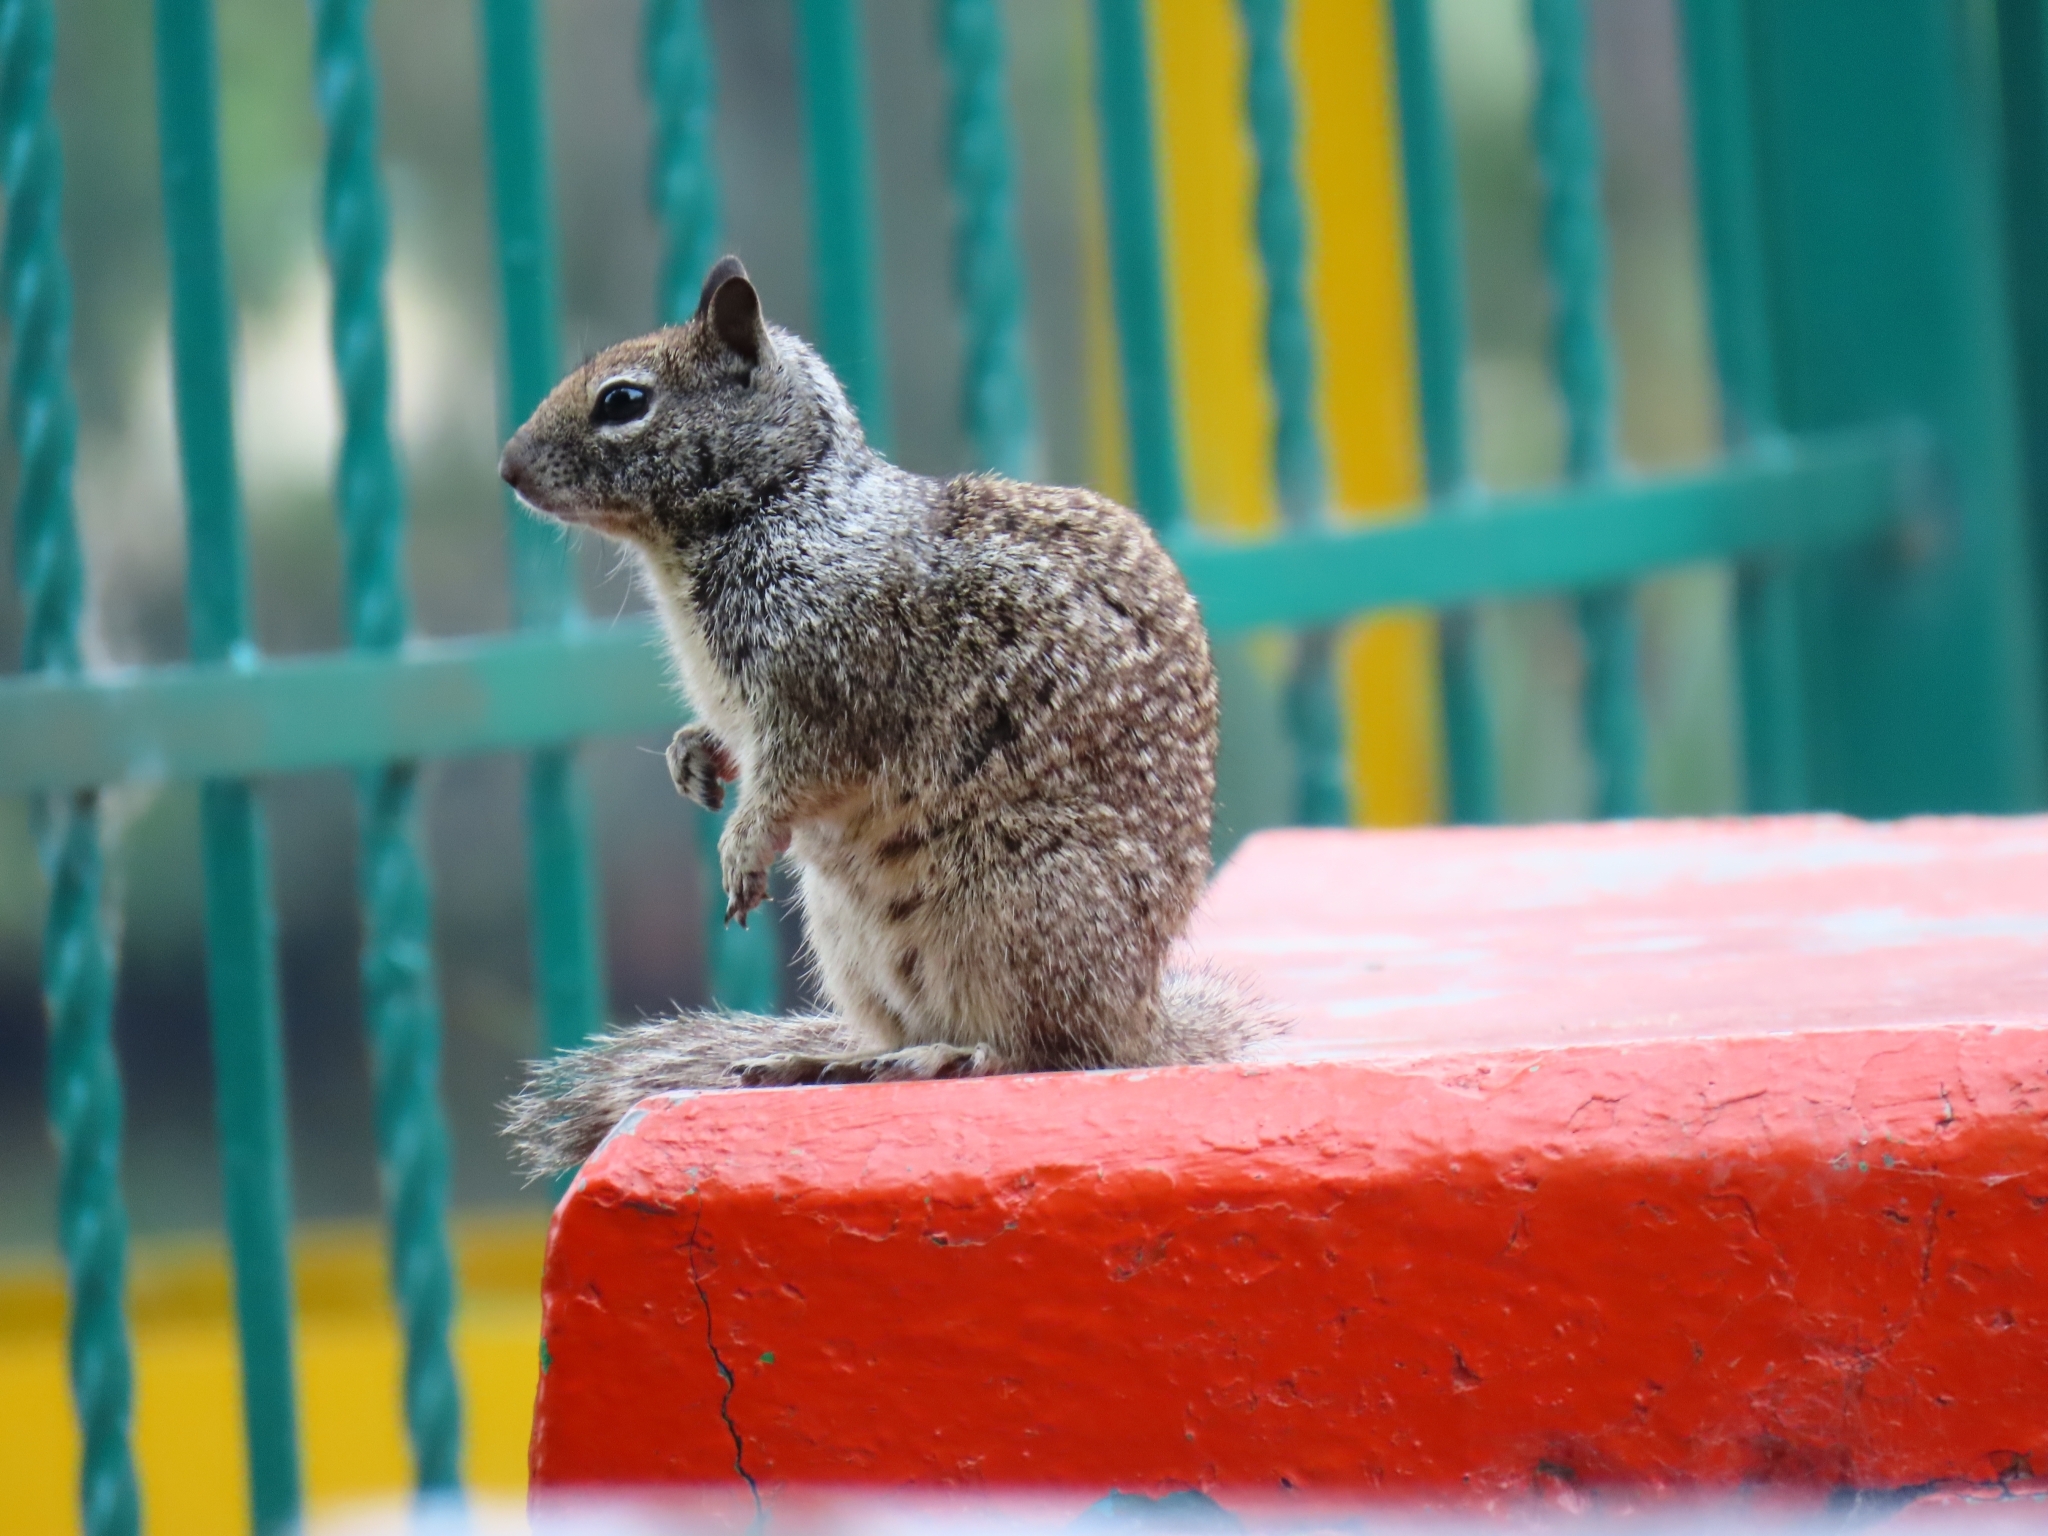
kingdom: Animalia
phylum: Chordata
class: Mammalia
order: Rodentia
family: Sciuridae
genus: Otospermophilus
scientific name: Otospermophilus beecheyi
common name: California ground squirrel
